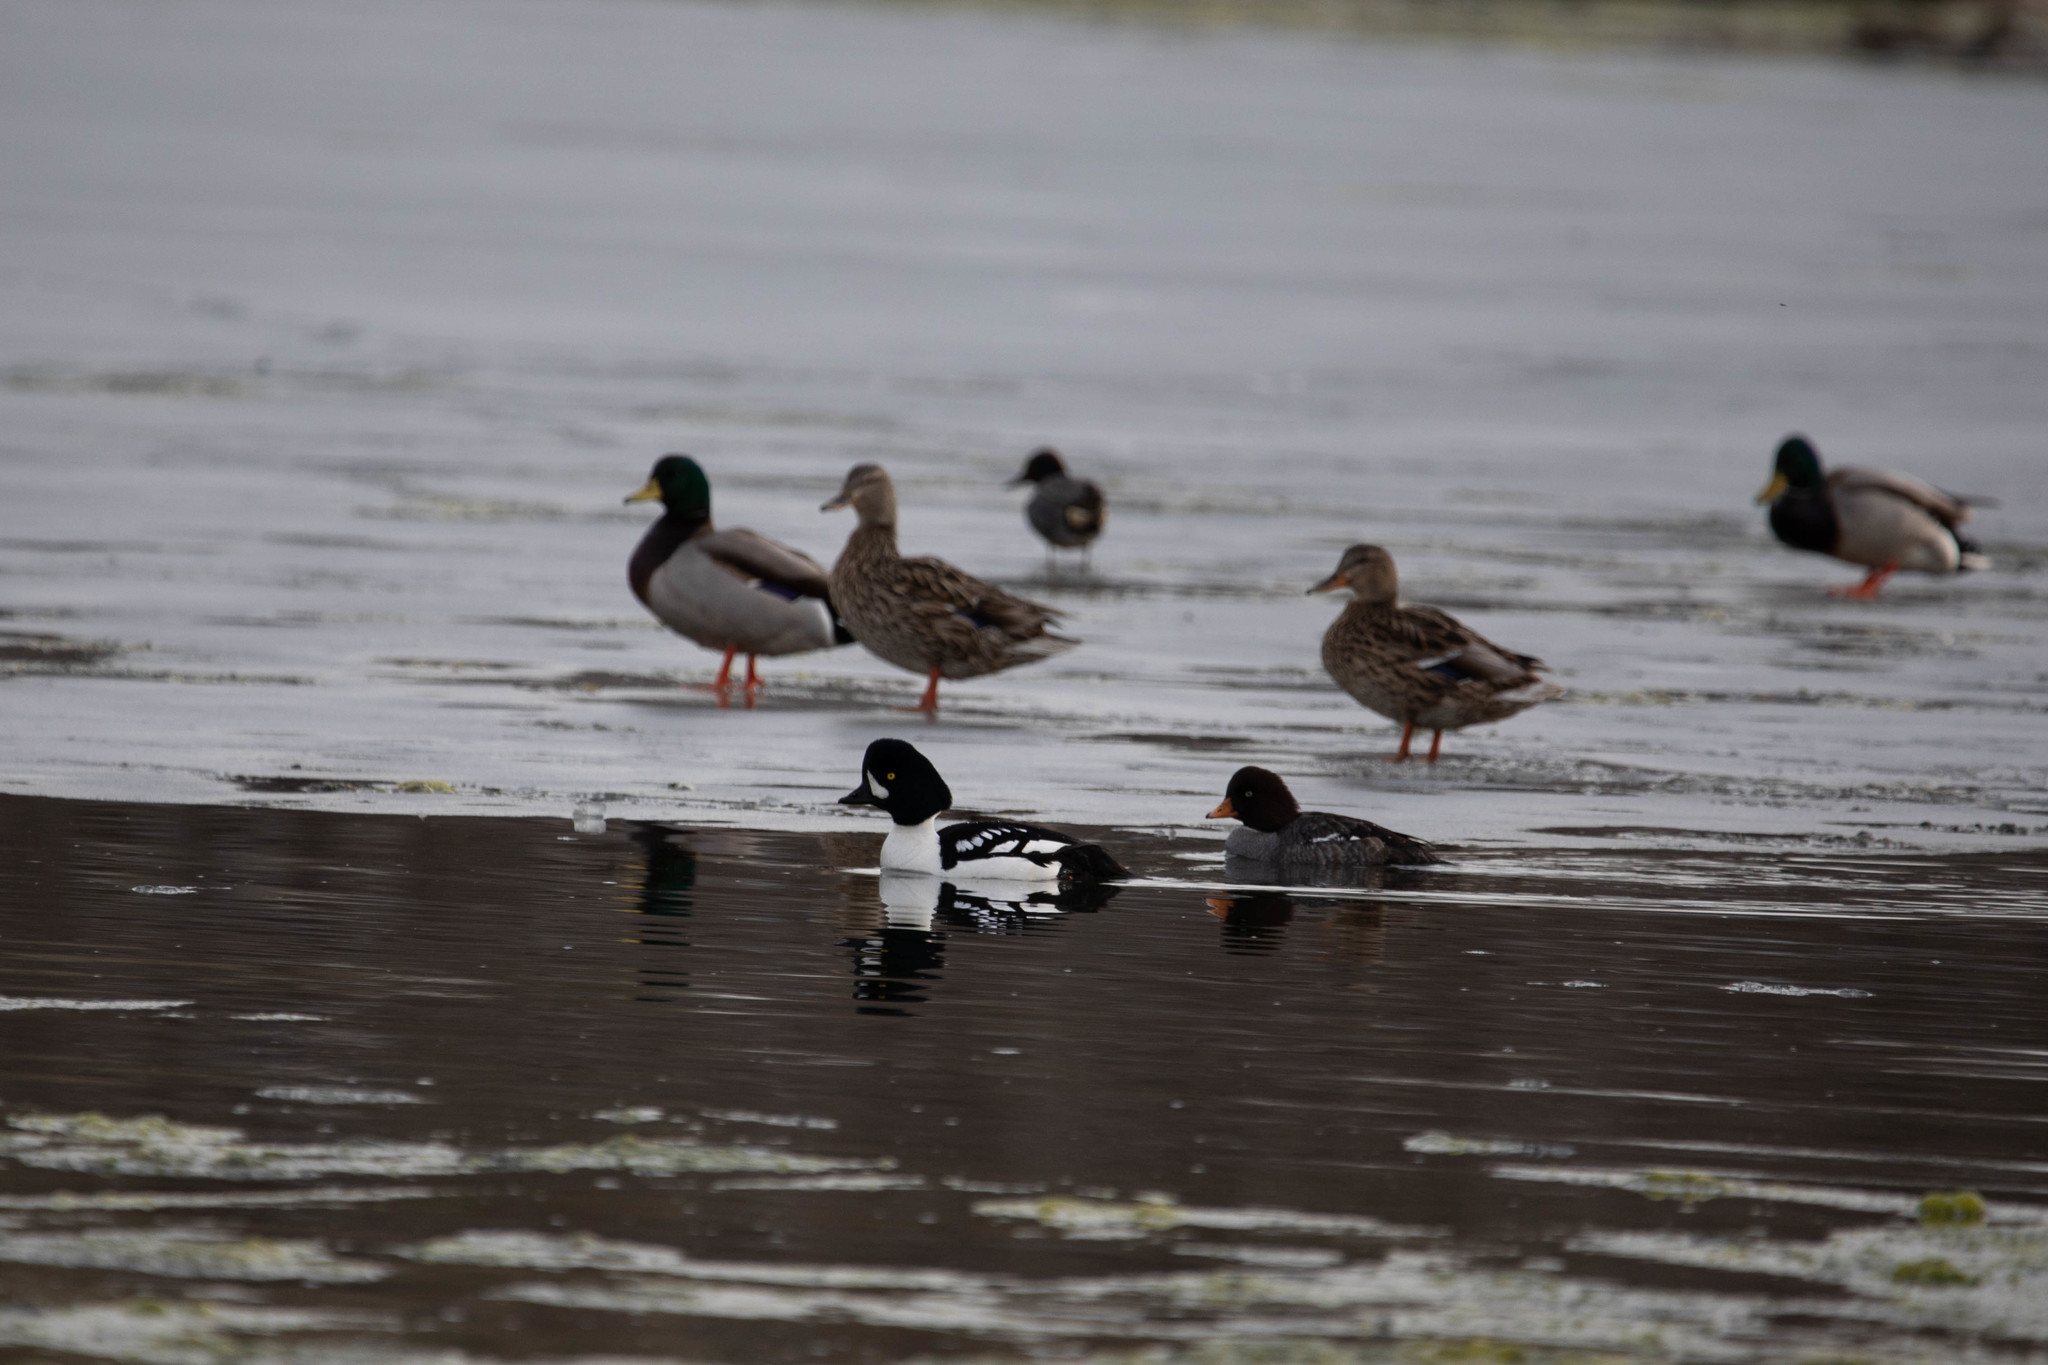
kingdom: Animalia
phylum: Chordata
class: Aves
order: Anseriformes
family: Anatidae
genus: Bucephala
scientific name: Bucephala islandica
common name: Barrow's goldeneye
